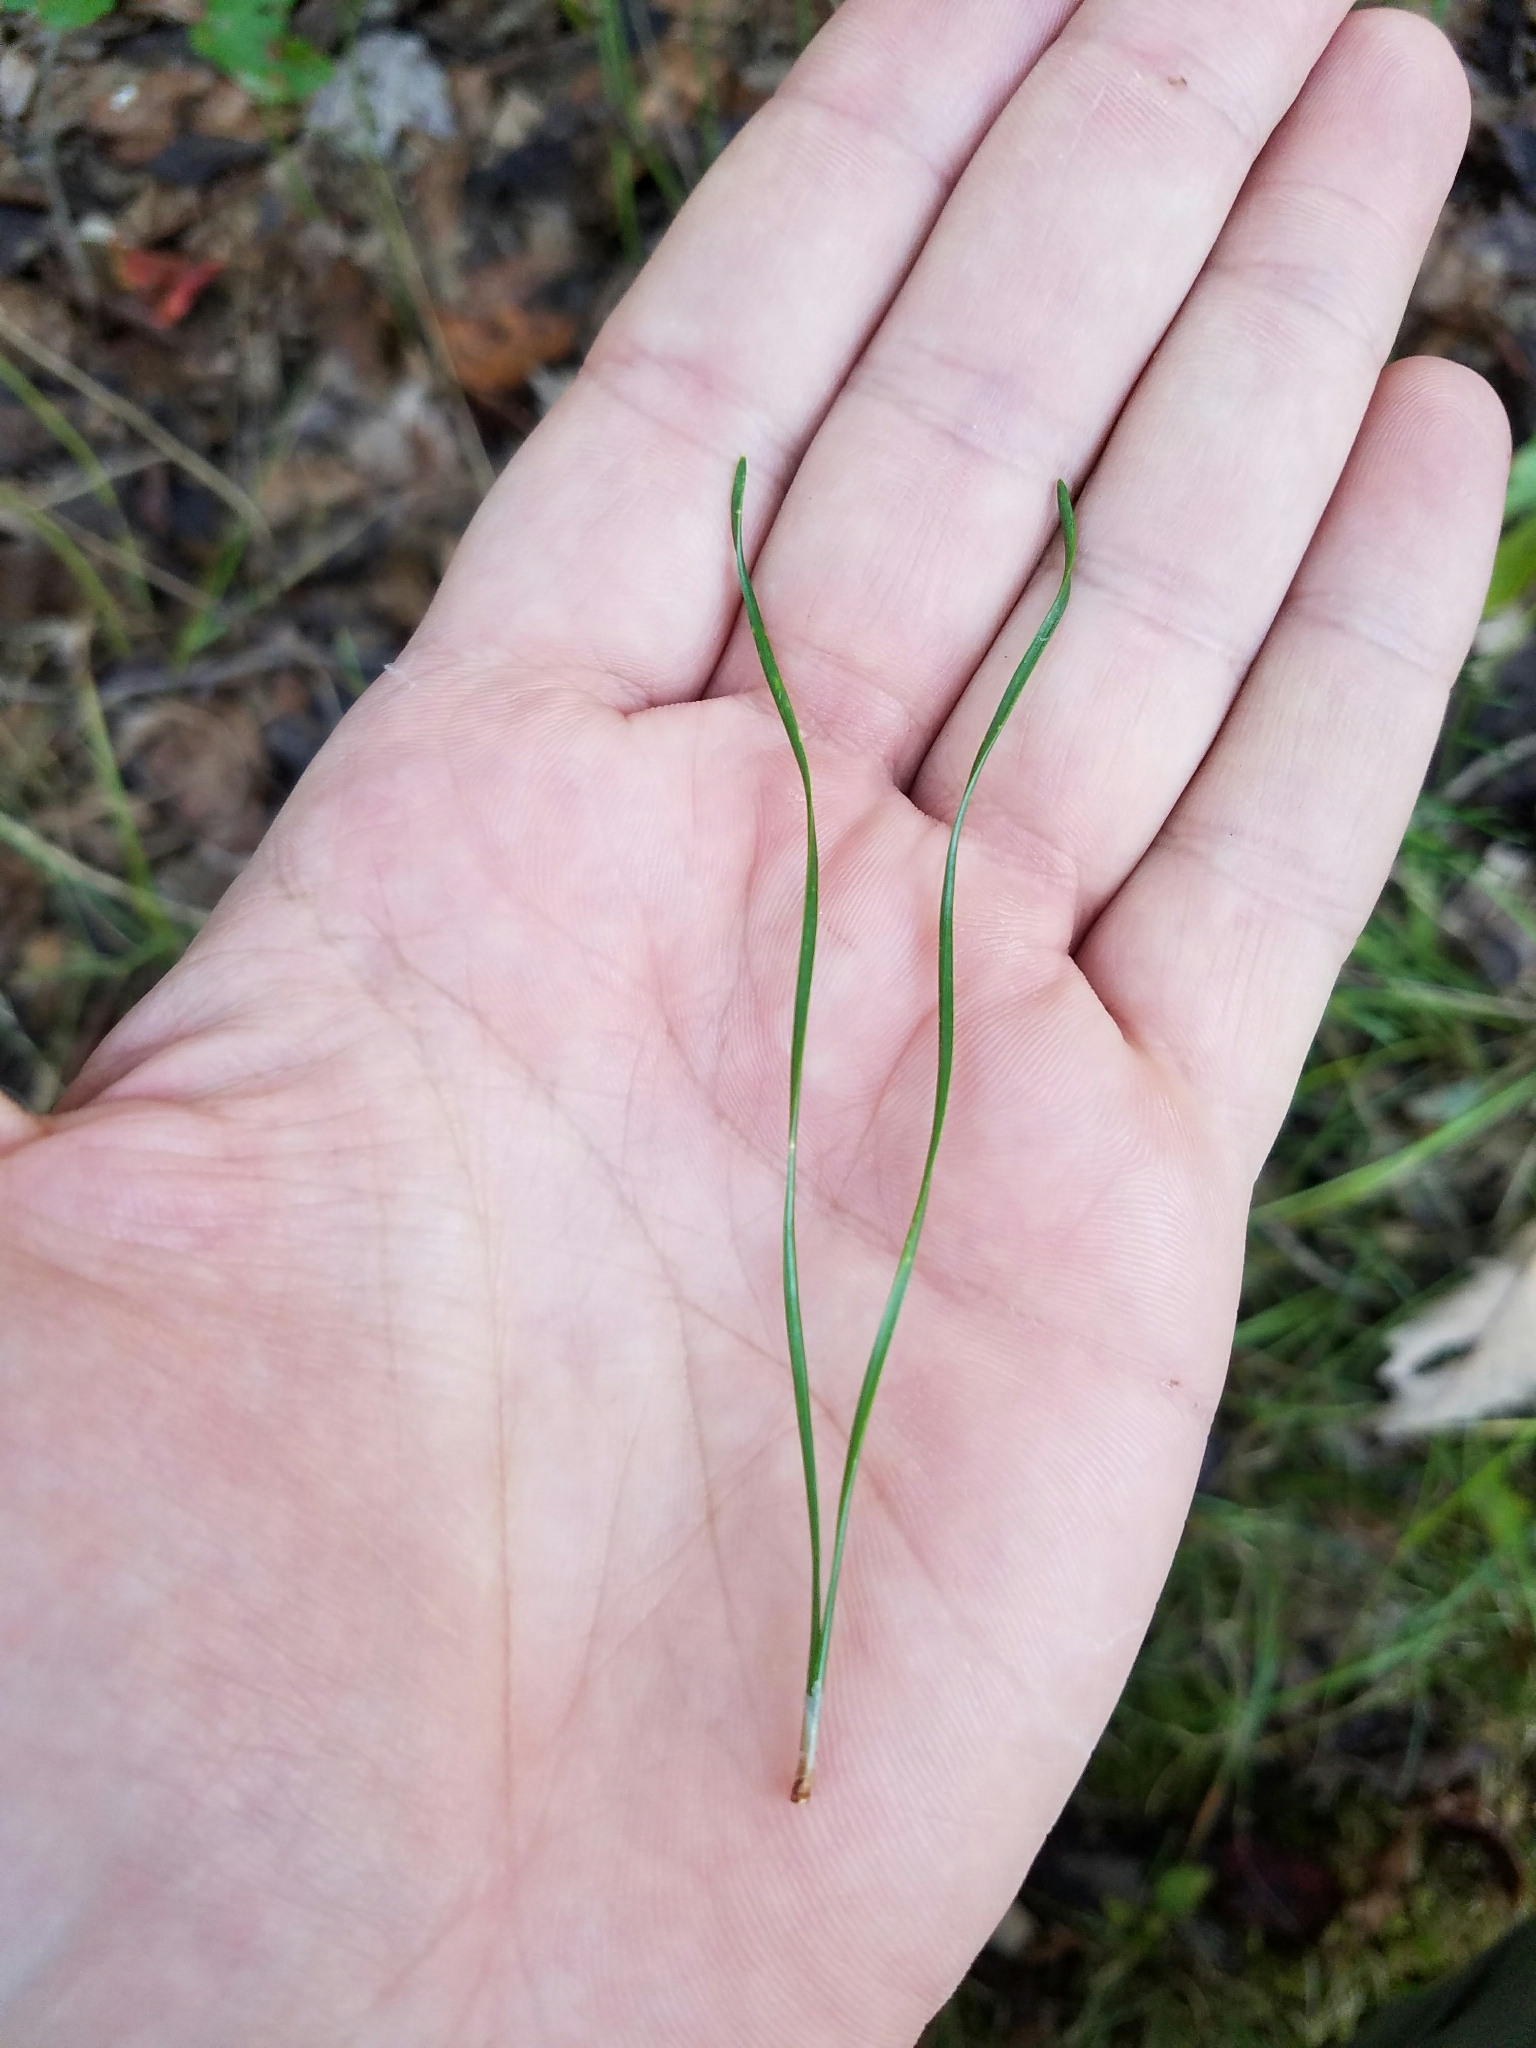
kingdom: Plantae
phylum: Tracheophyta
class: Pinopsida
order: Pinales
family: Pinaceae
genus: Pinus
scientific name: Pinus virginiana
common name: Scrub pine
